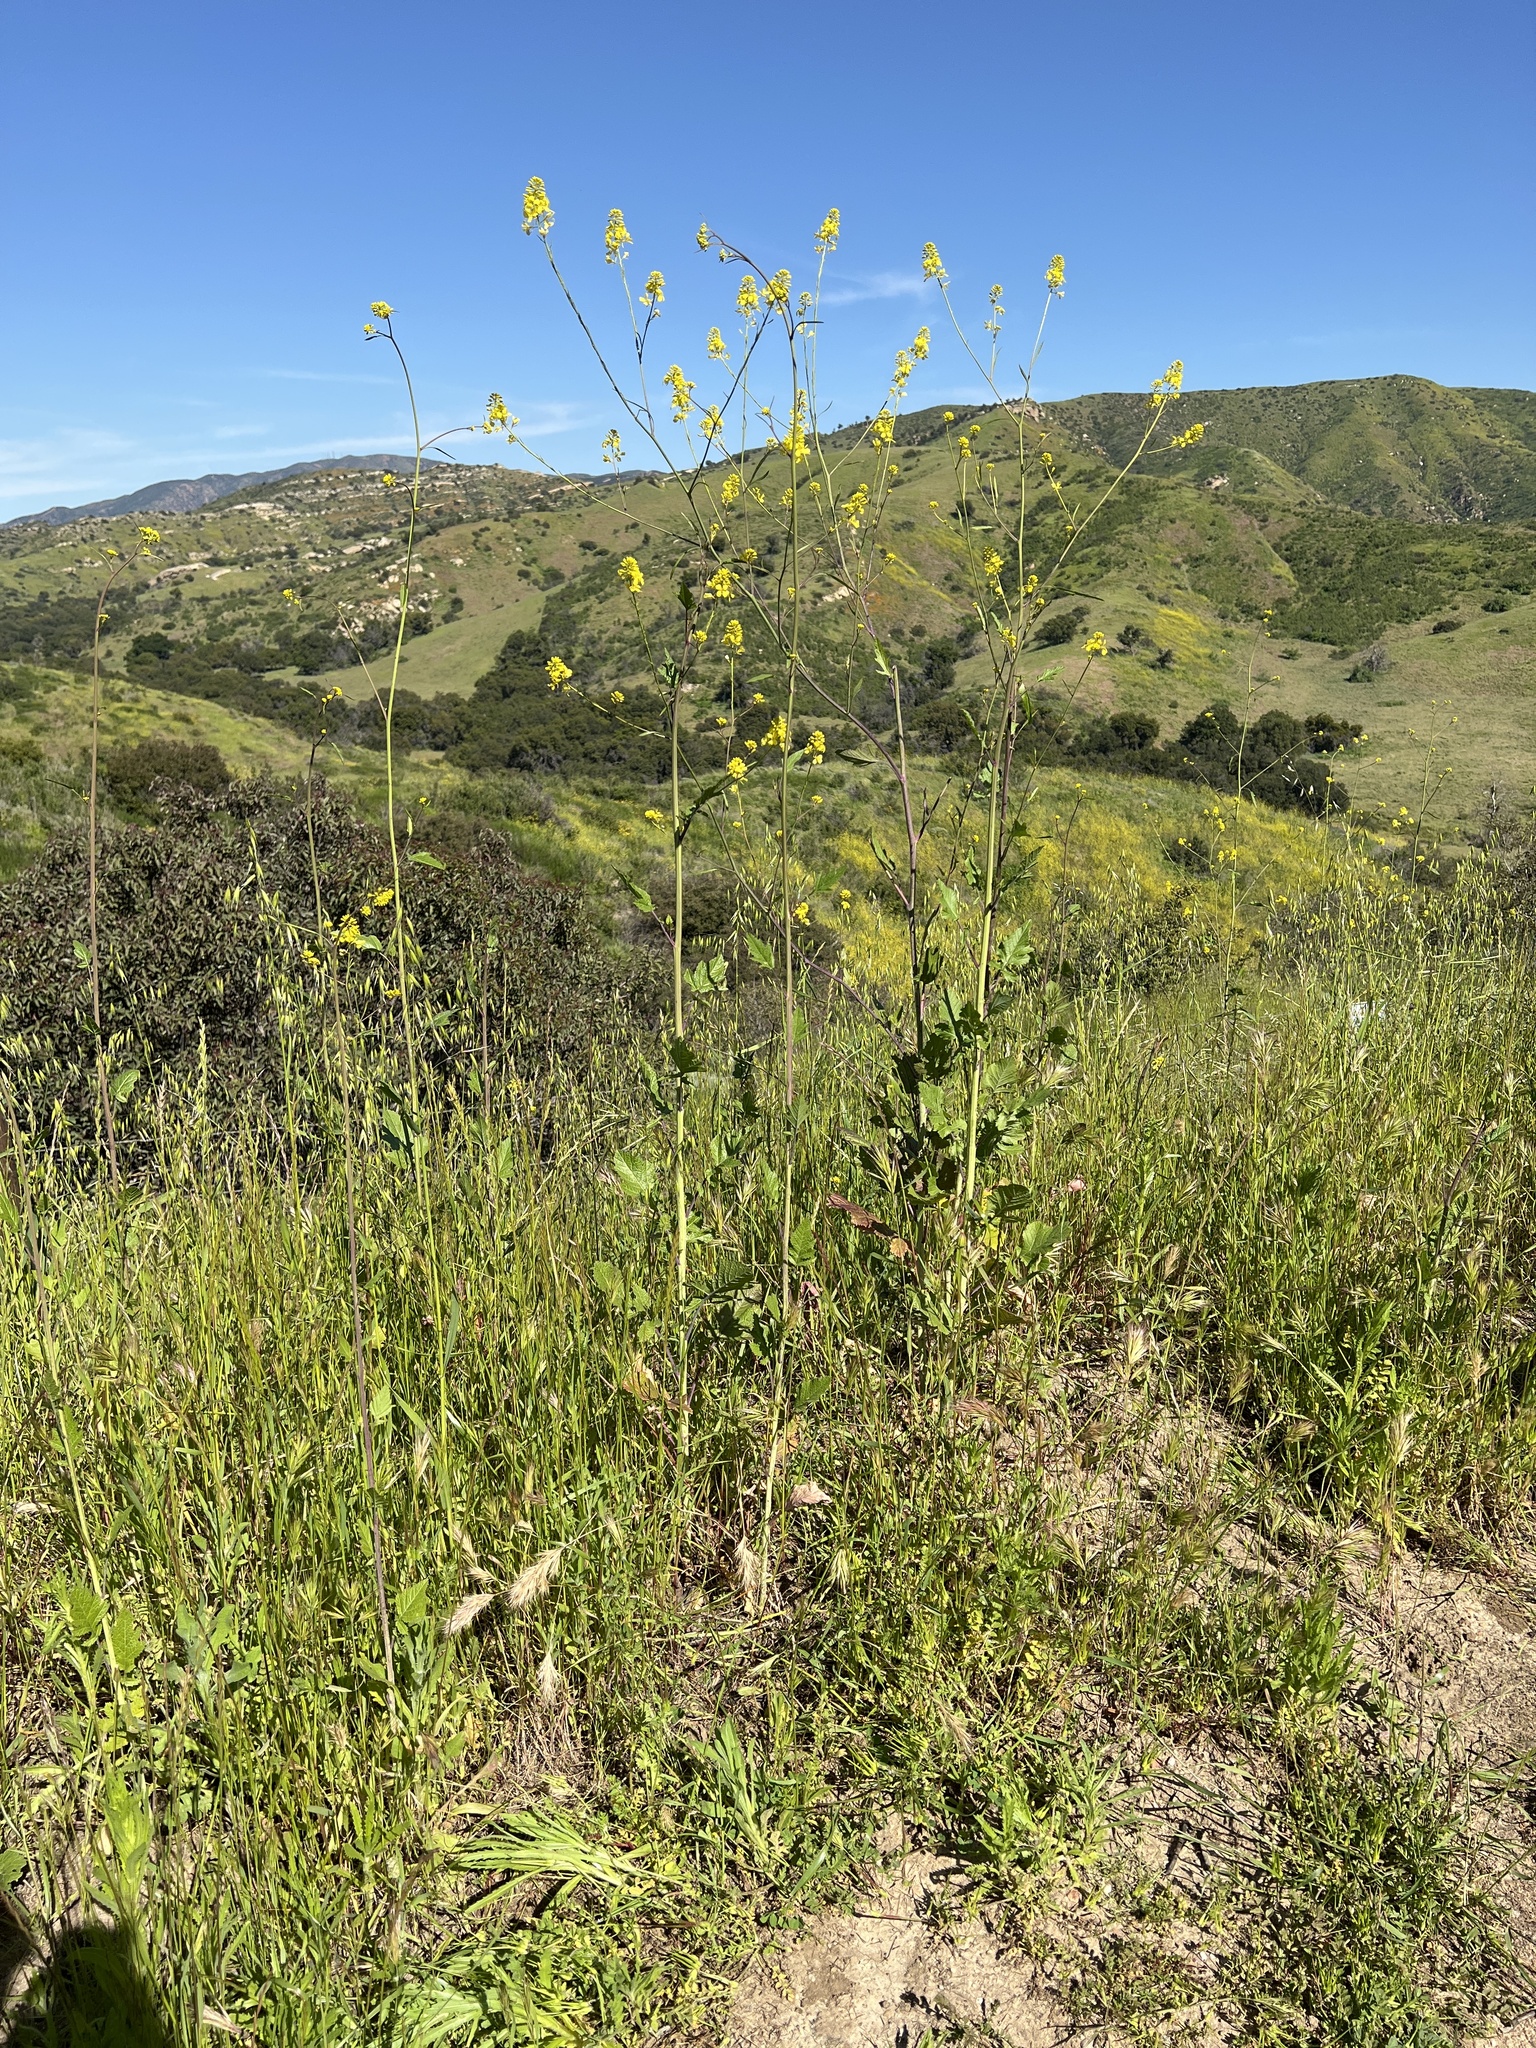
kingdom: Plantae
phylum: Tracheophyta
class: Magnoliopsida
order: Brassicales
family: Brassicaceae
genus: Brassica
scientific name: Brassica nigra
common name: Black mustard
